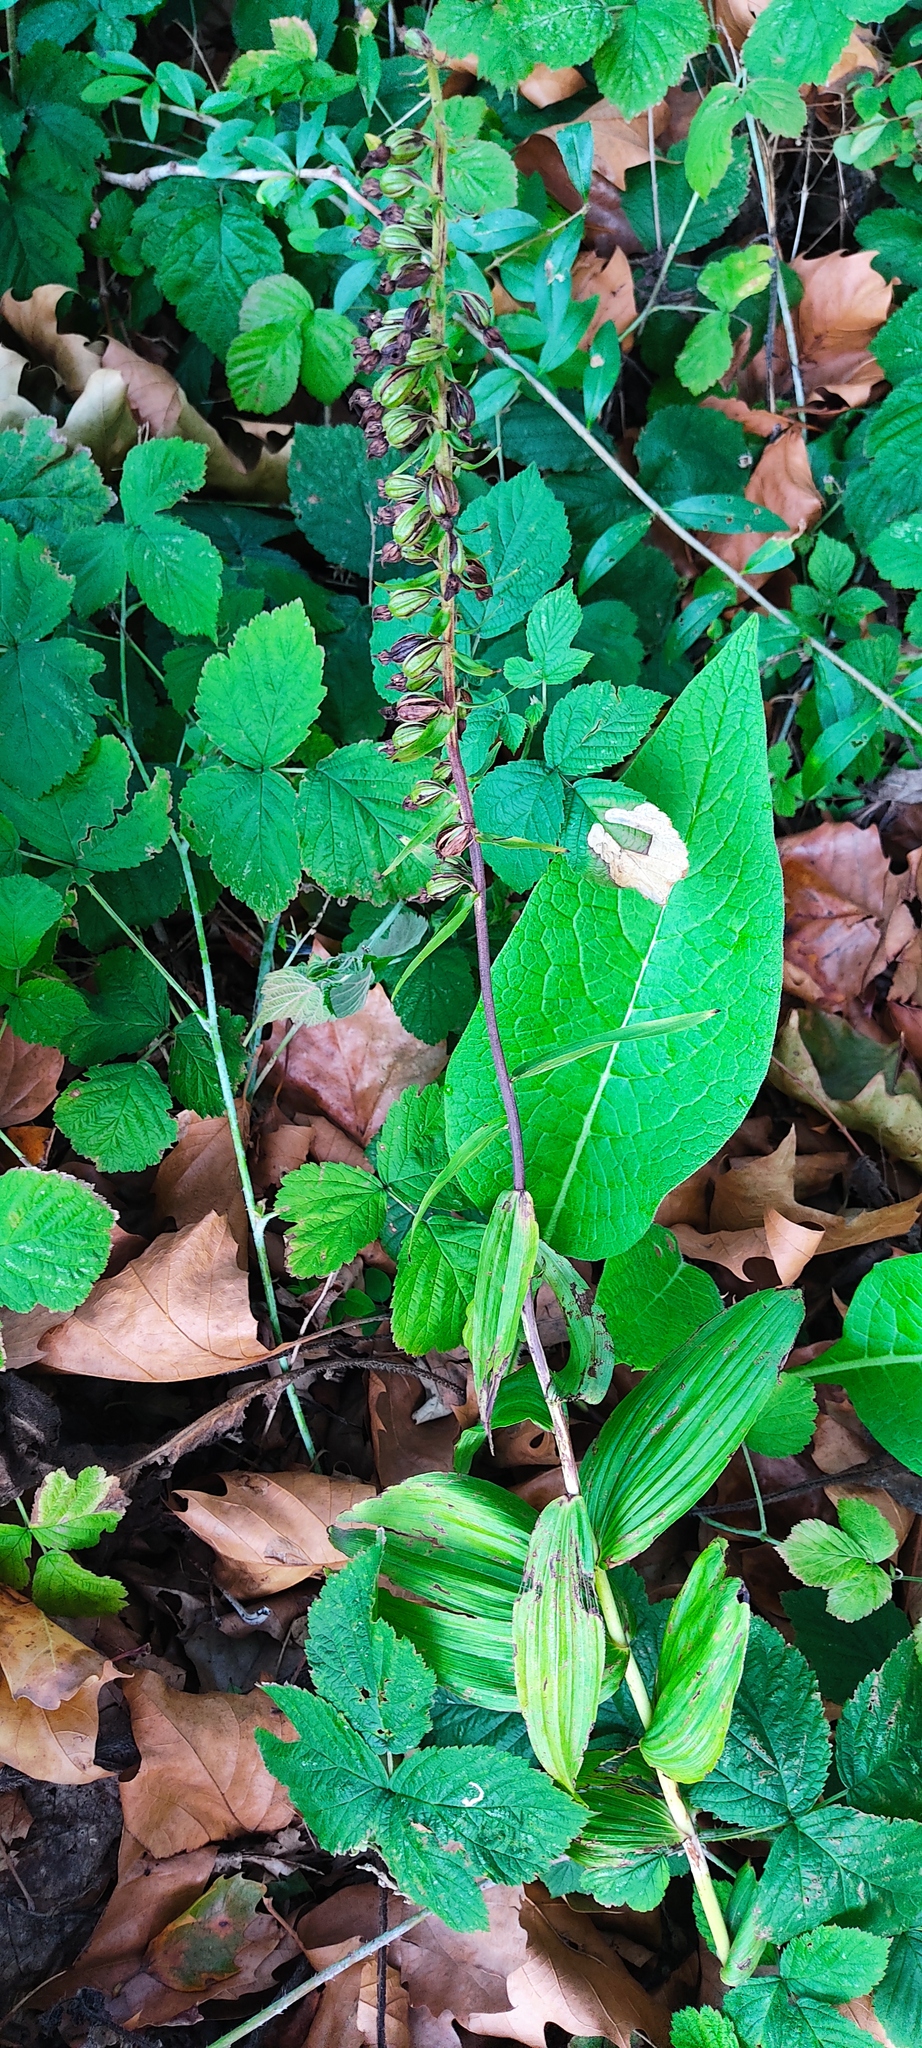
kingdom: Plantae
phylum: Tracheophyta
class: Liliopsida
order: Asparagales
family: Orchidaceae
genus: Epipactis
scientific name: Epipactis helleborine
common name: Broad-leaved helleborine
